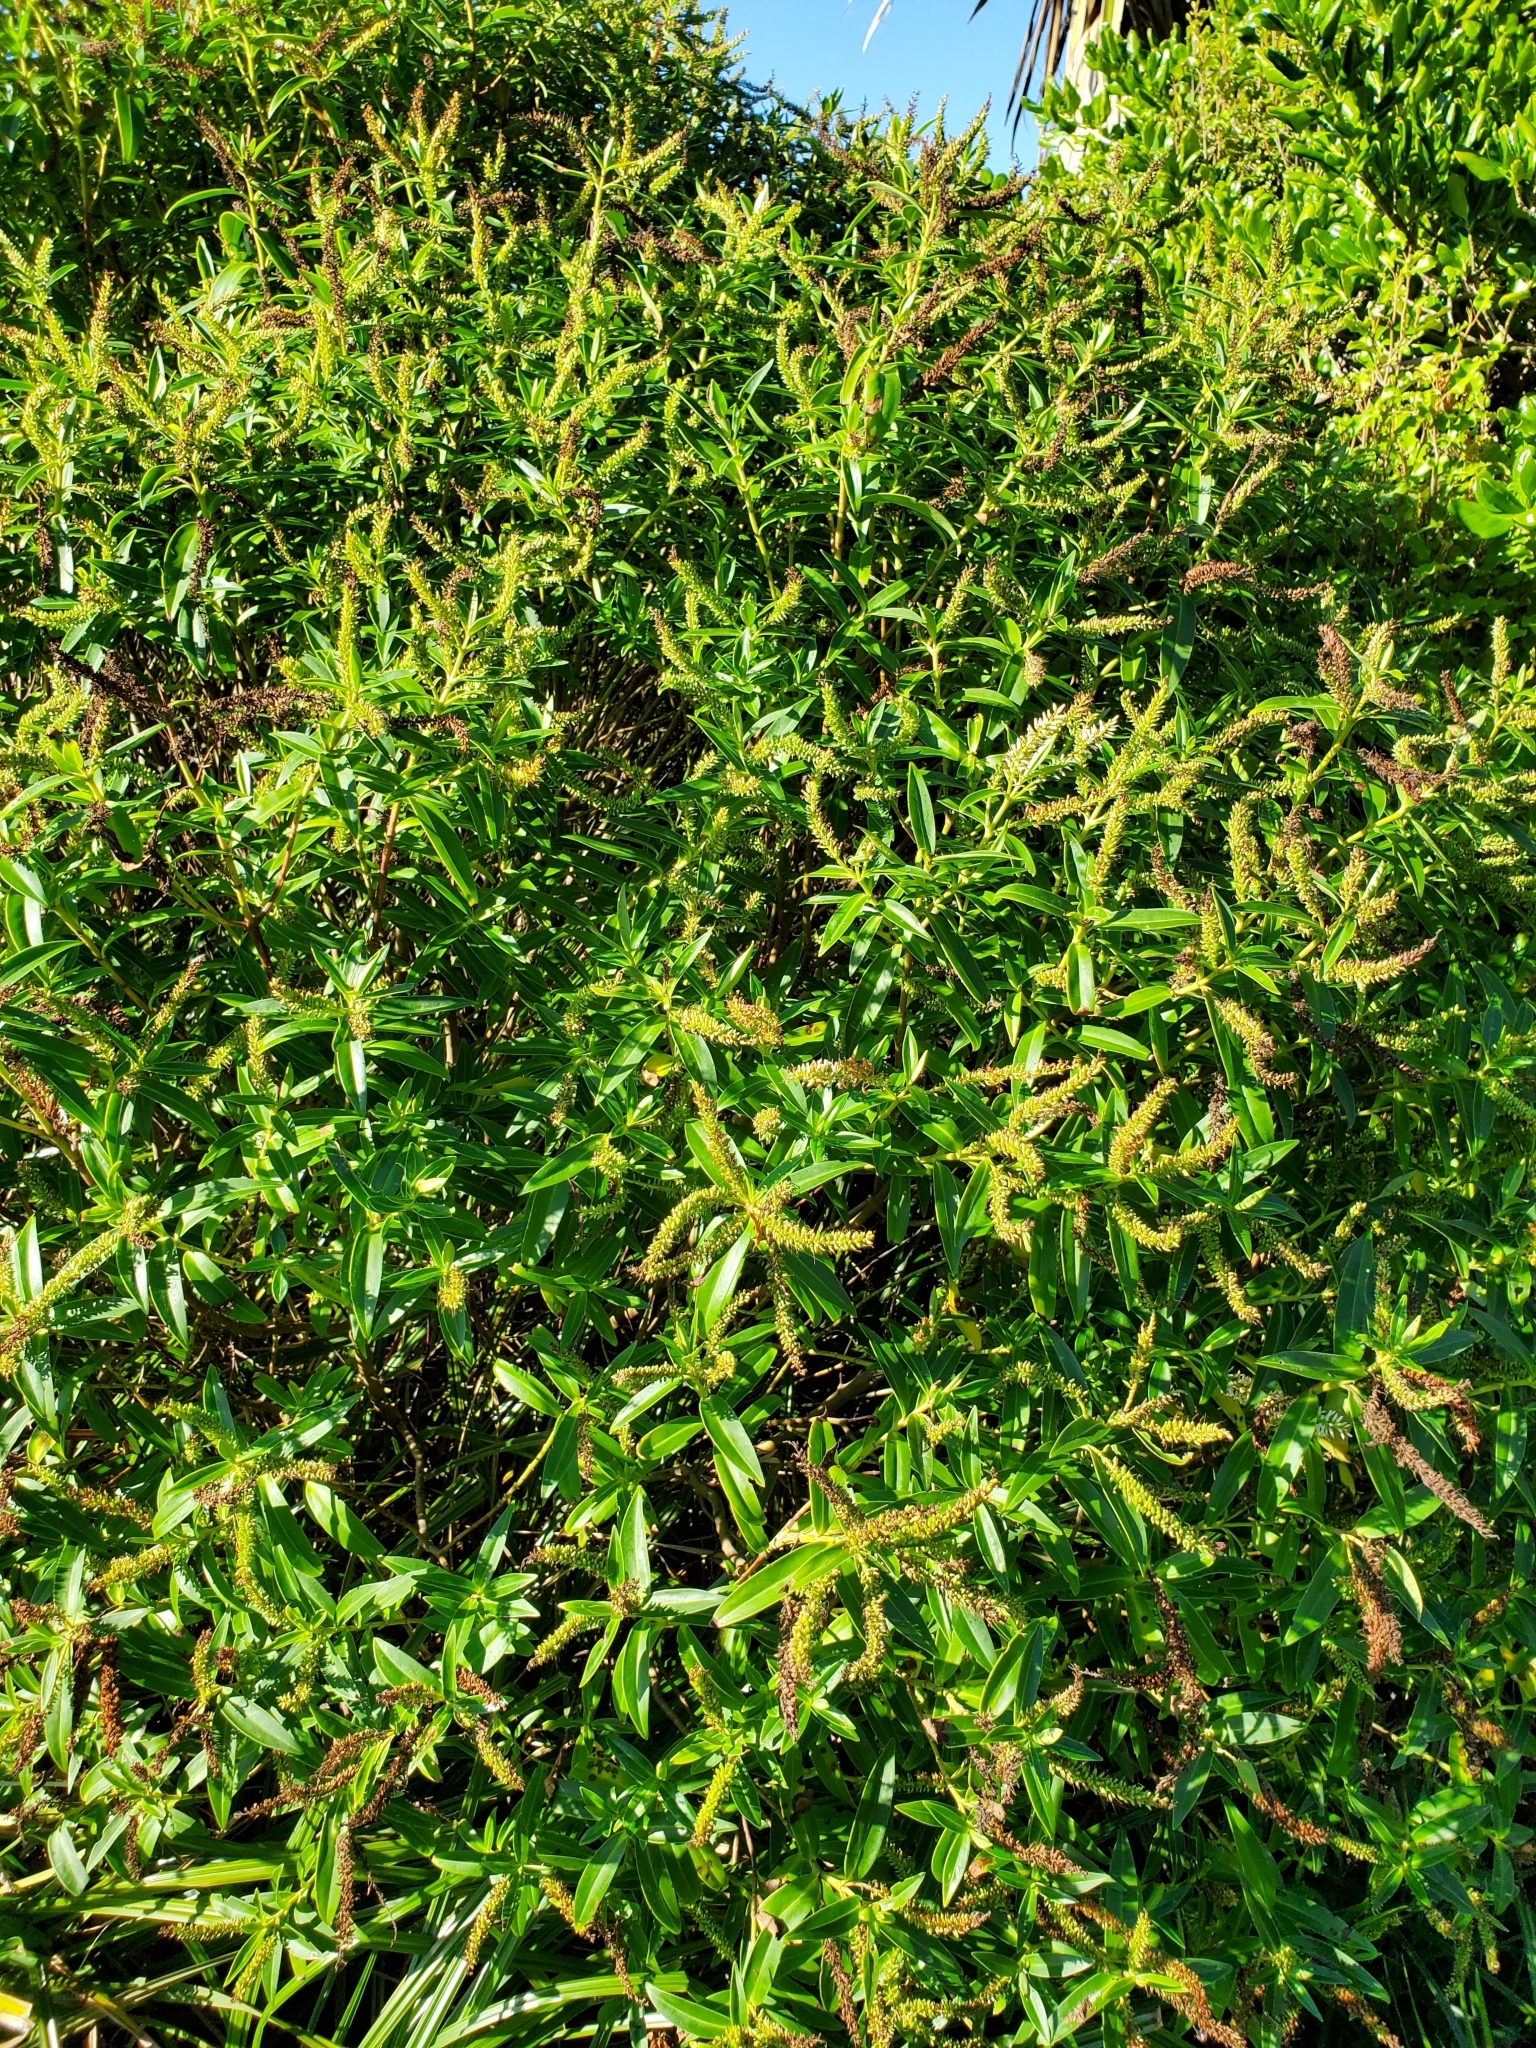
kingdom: Plantae
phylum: Tracheophyta
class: Magnoliopsida
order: Lamiales
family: Plantaginaceae
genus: Veronica
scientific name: Veronica stricta
